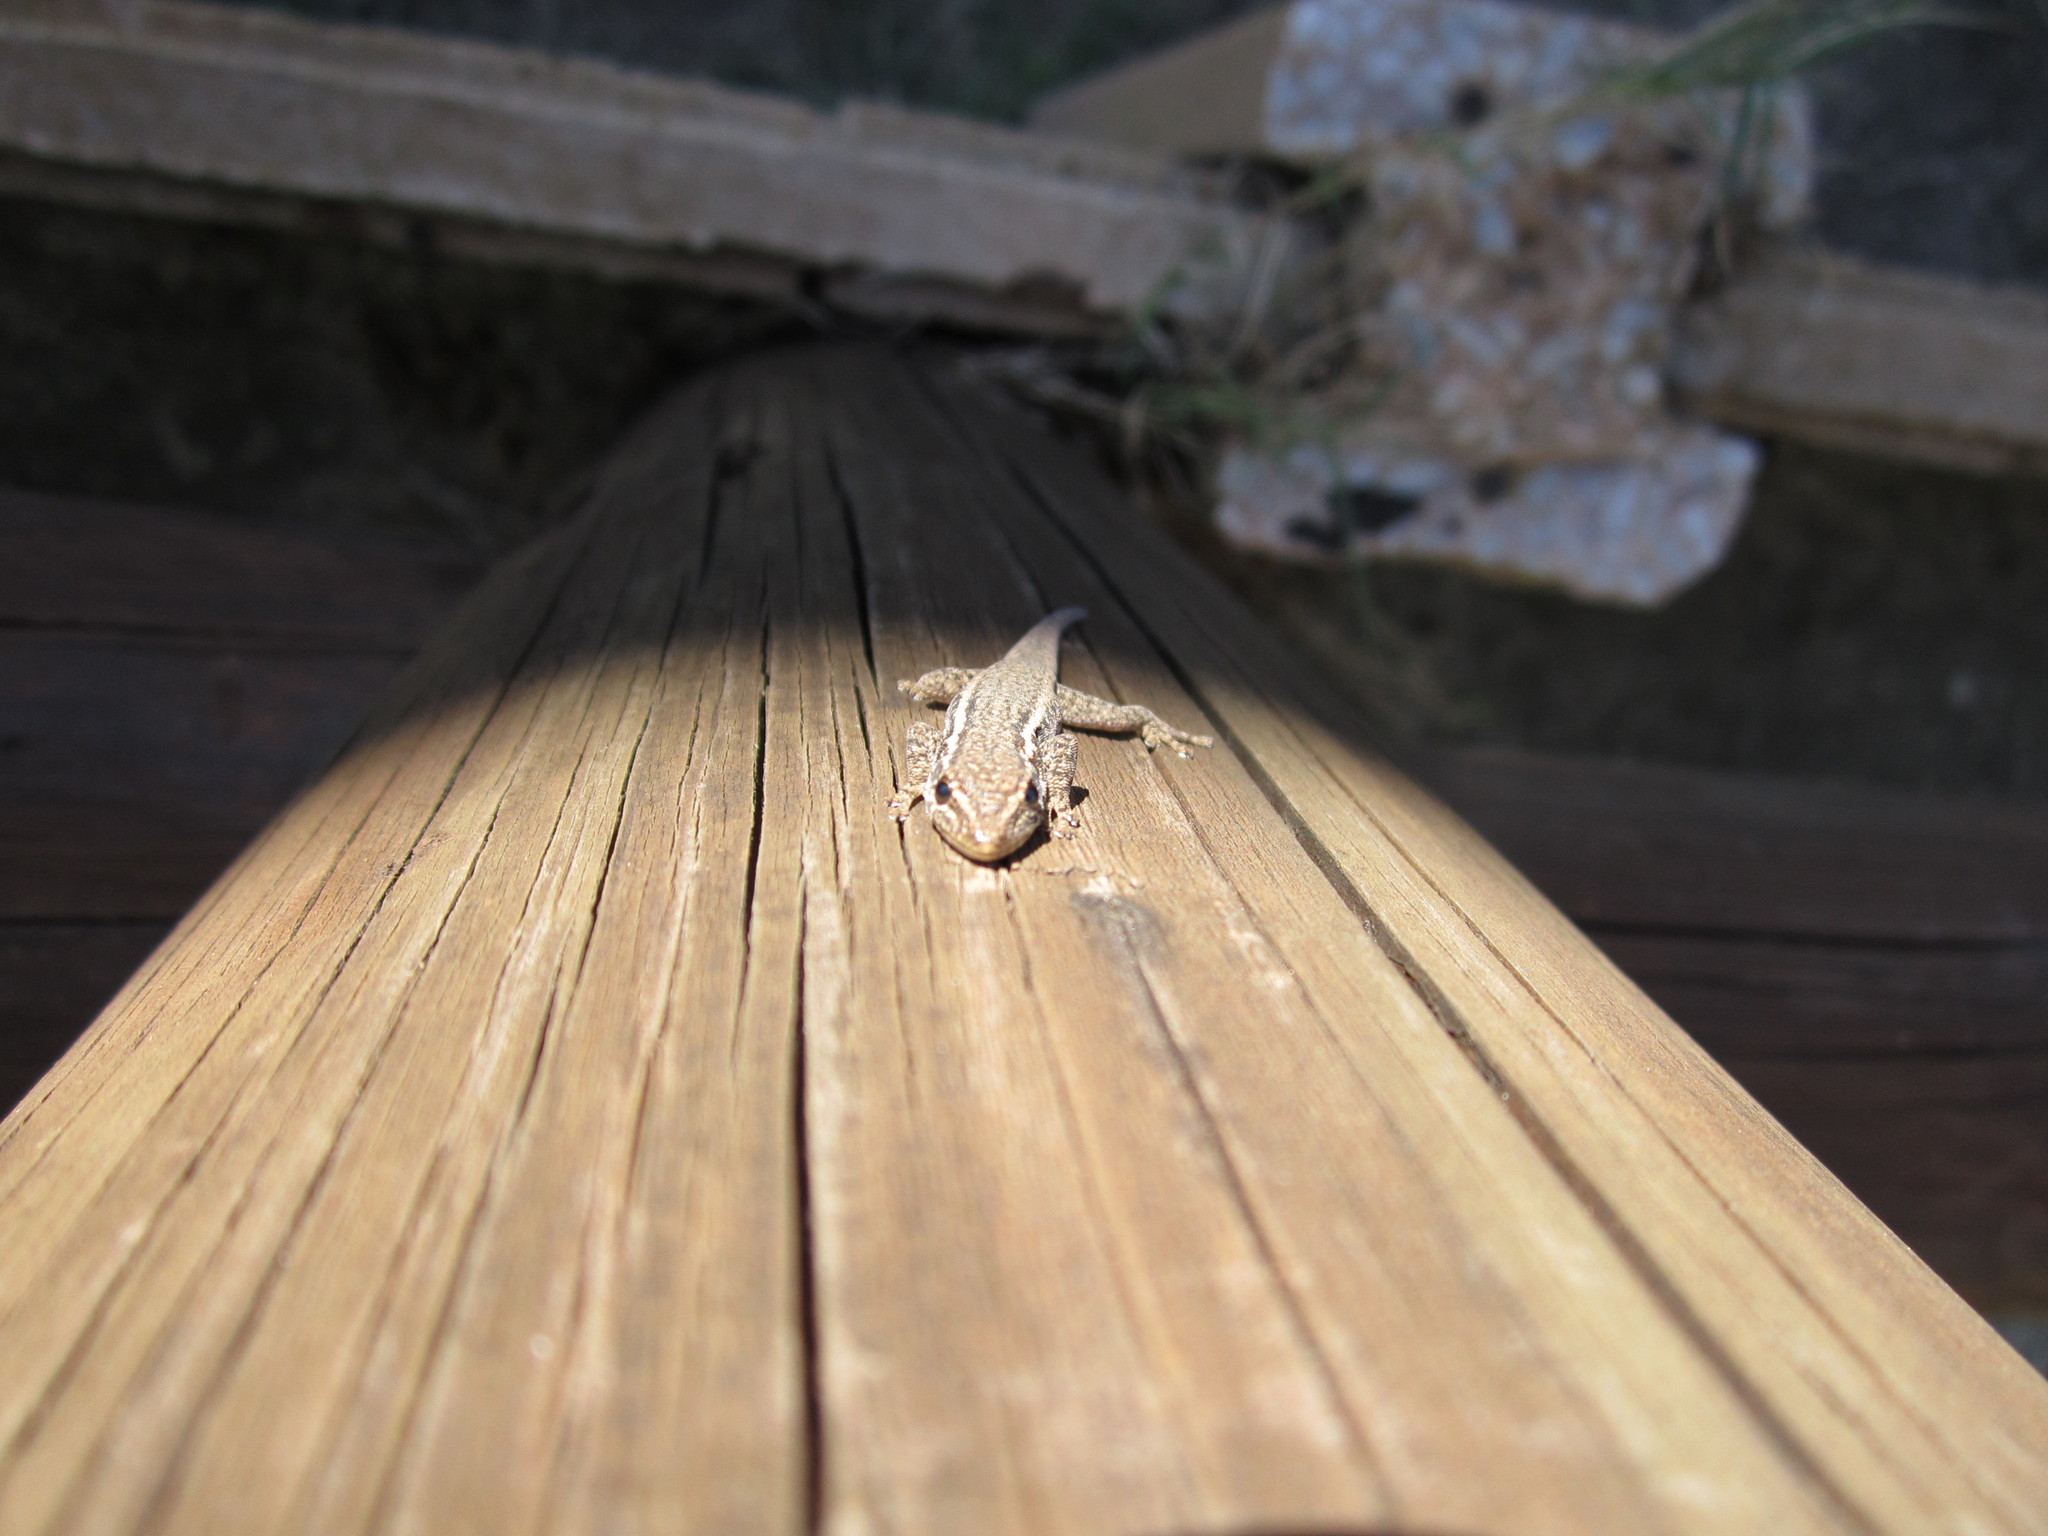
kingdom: Animalia
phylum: Chordata
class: Squamata
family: Gekkonidae
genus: Lygodactylus
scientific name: Lygodactylus capensis
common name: Cape dwarf gecko
